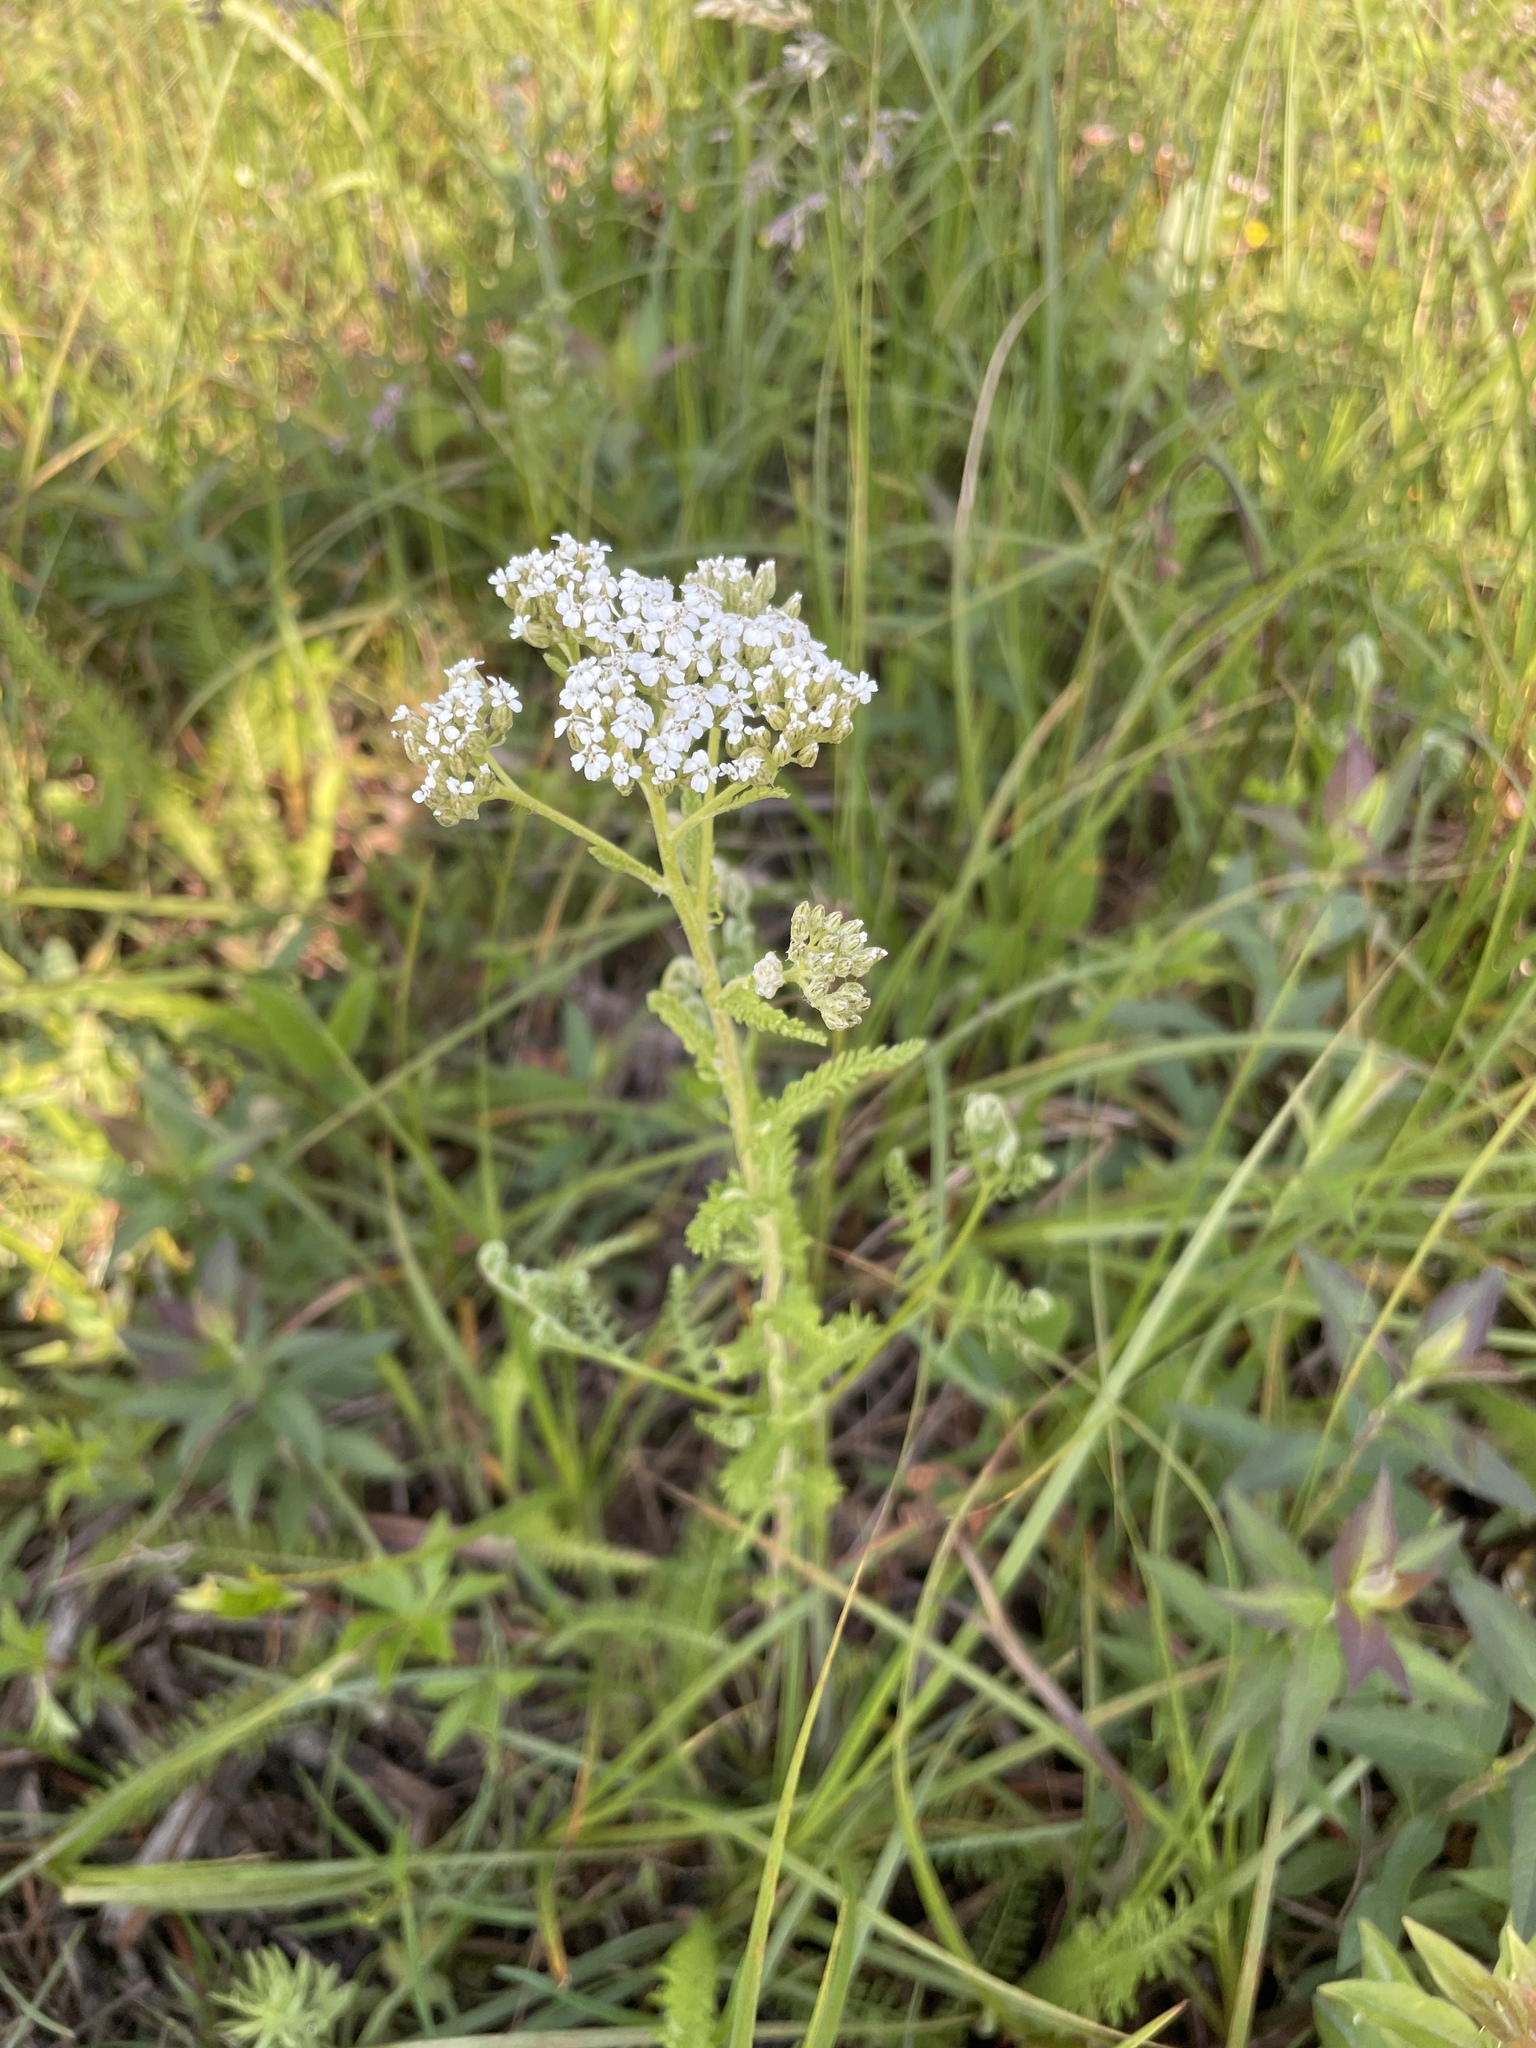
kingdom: Plantae
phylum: Tracheophyta
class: Magnoliopsida
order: Asterales
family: Asteraceae
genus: Achillea
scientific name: Achillea millefolium
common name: Yarrow
